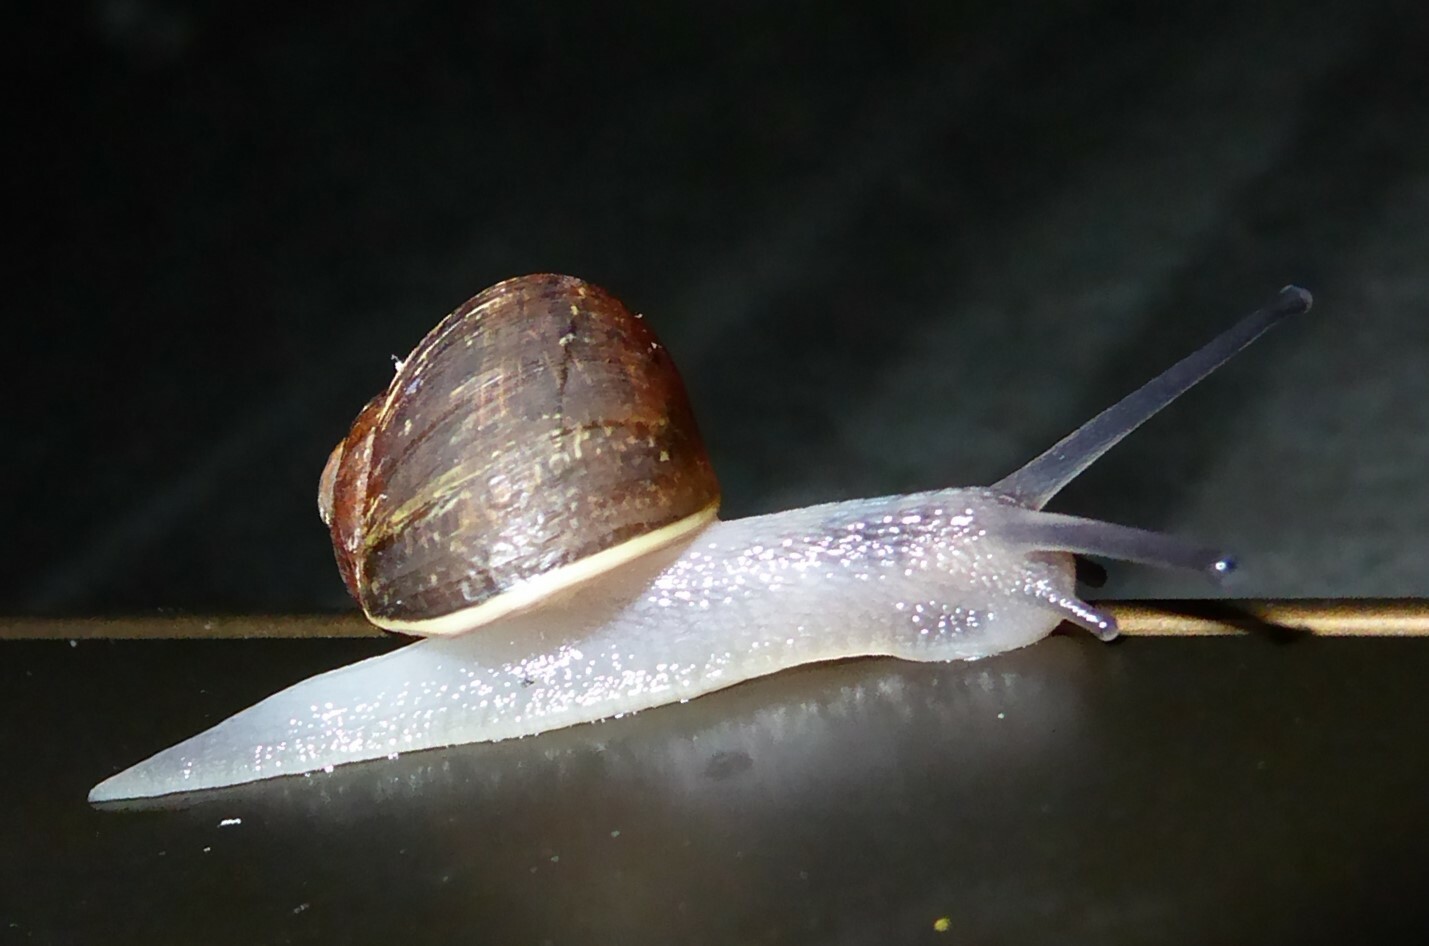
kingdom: Animalia
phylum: Mollusca
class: Gastropoda
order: Stylommatophora
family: Helicidae
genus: Cornu
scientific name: Cornu aspersum
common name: Brown garden snail
